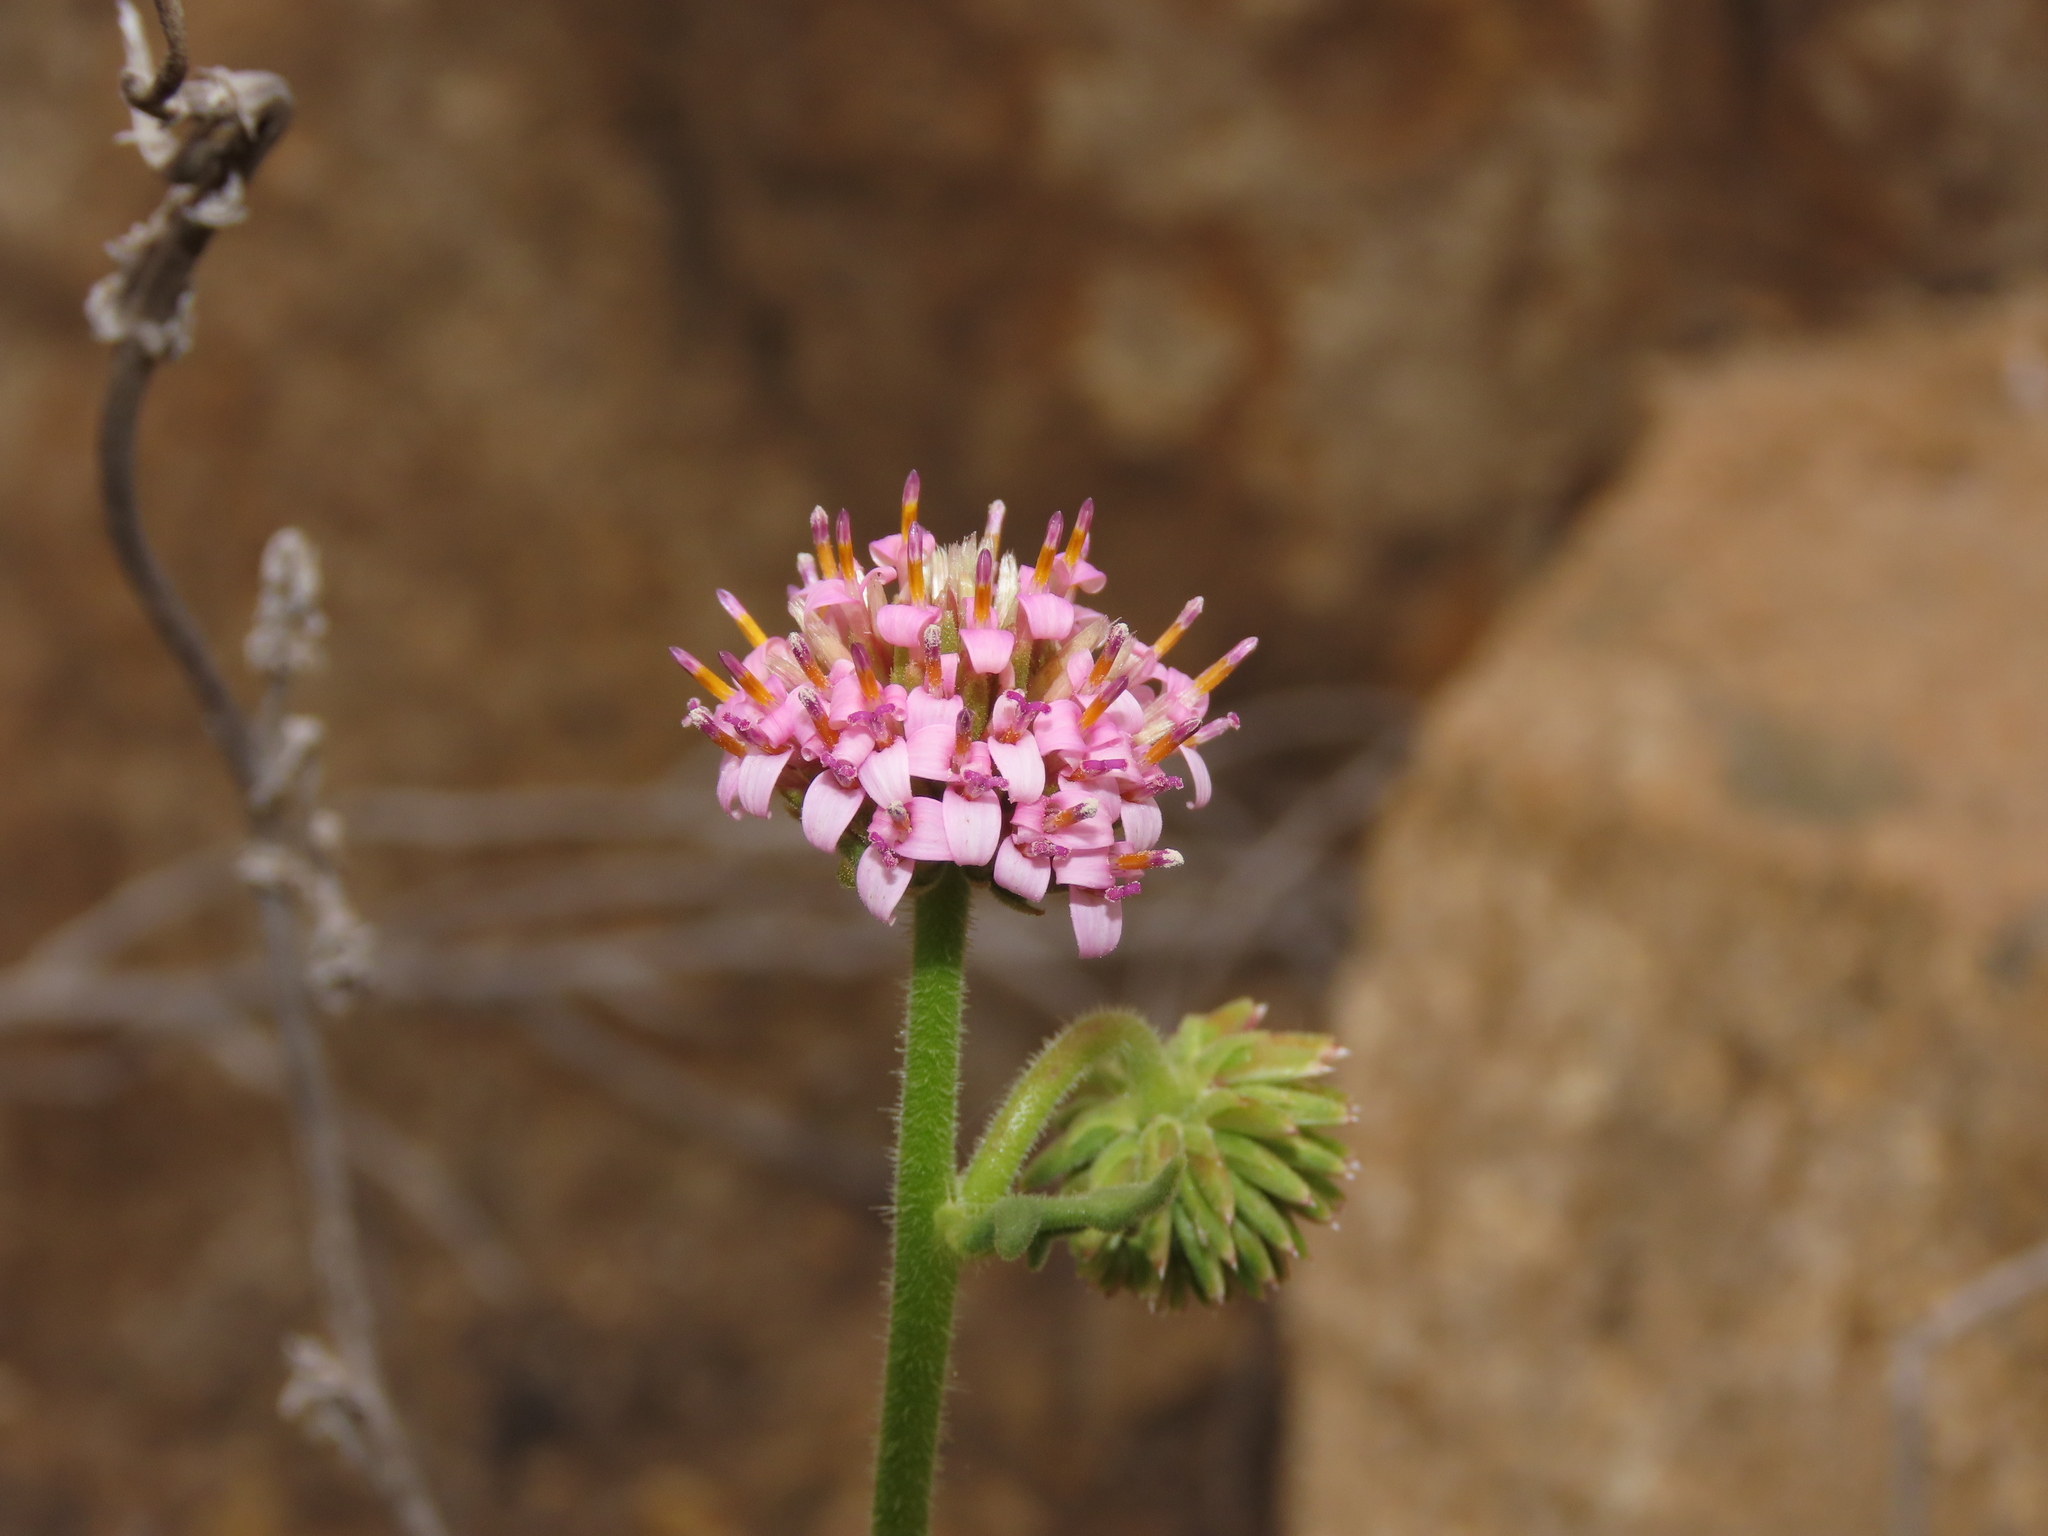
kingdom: Plantae
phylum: Tracheophyta
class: Magnoliopsida
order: Asterales
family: Asteraceae
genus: Polyachyrus
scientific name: Polyachyrus fuscus
